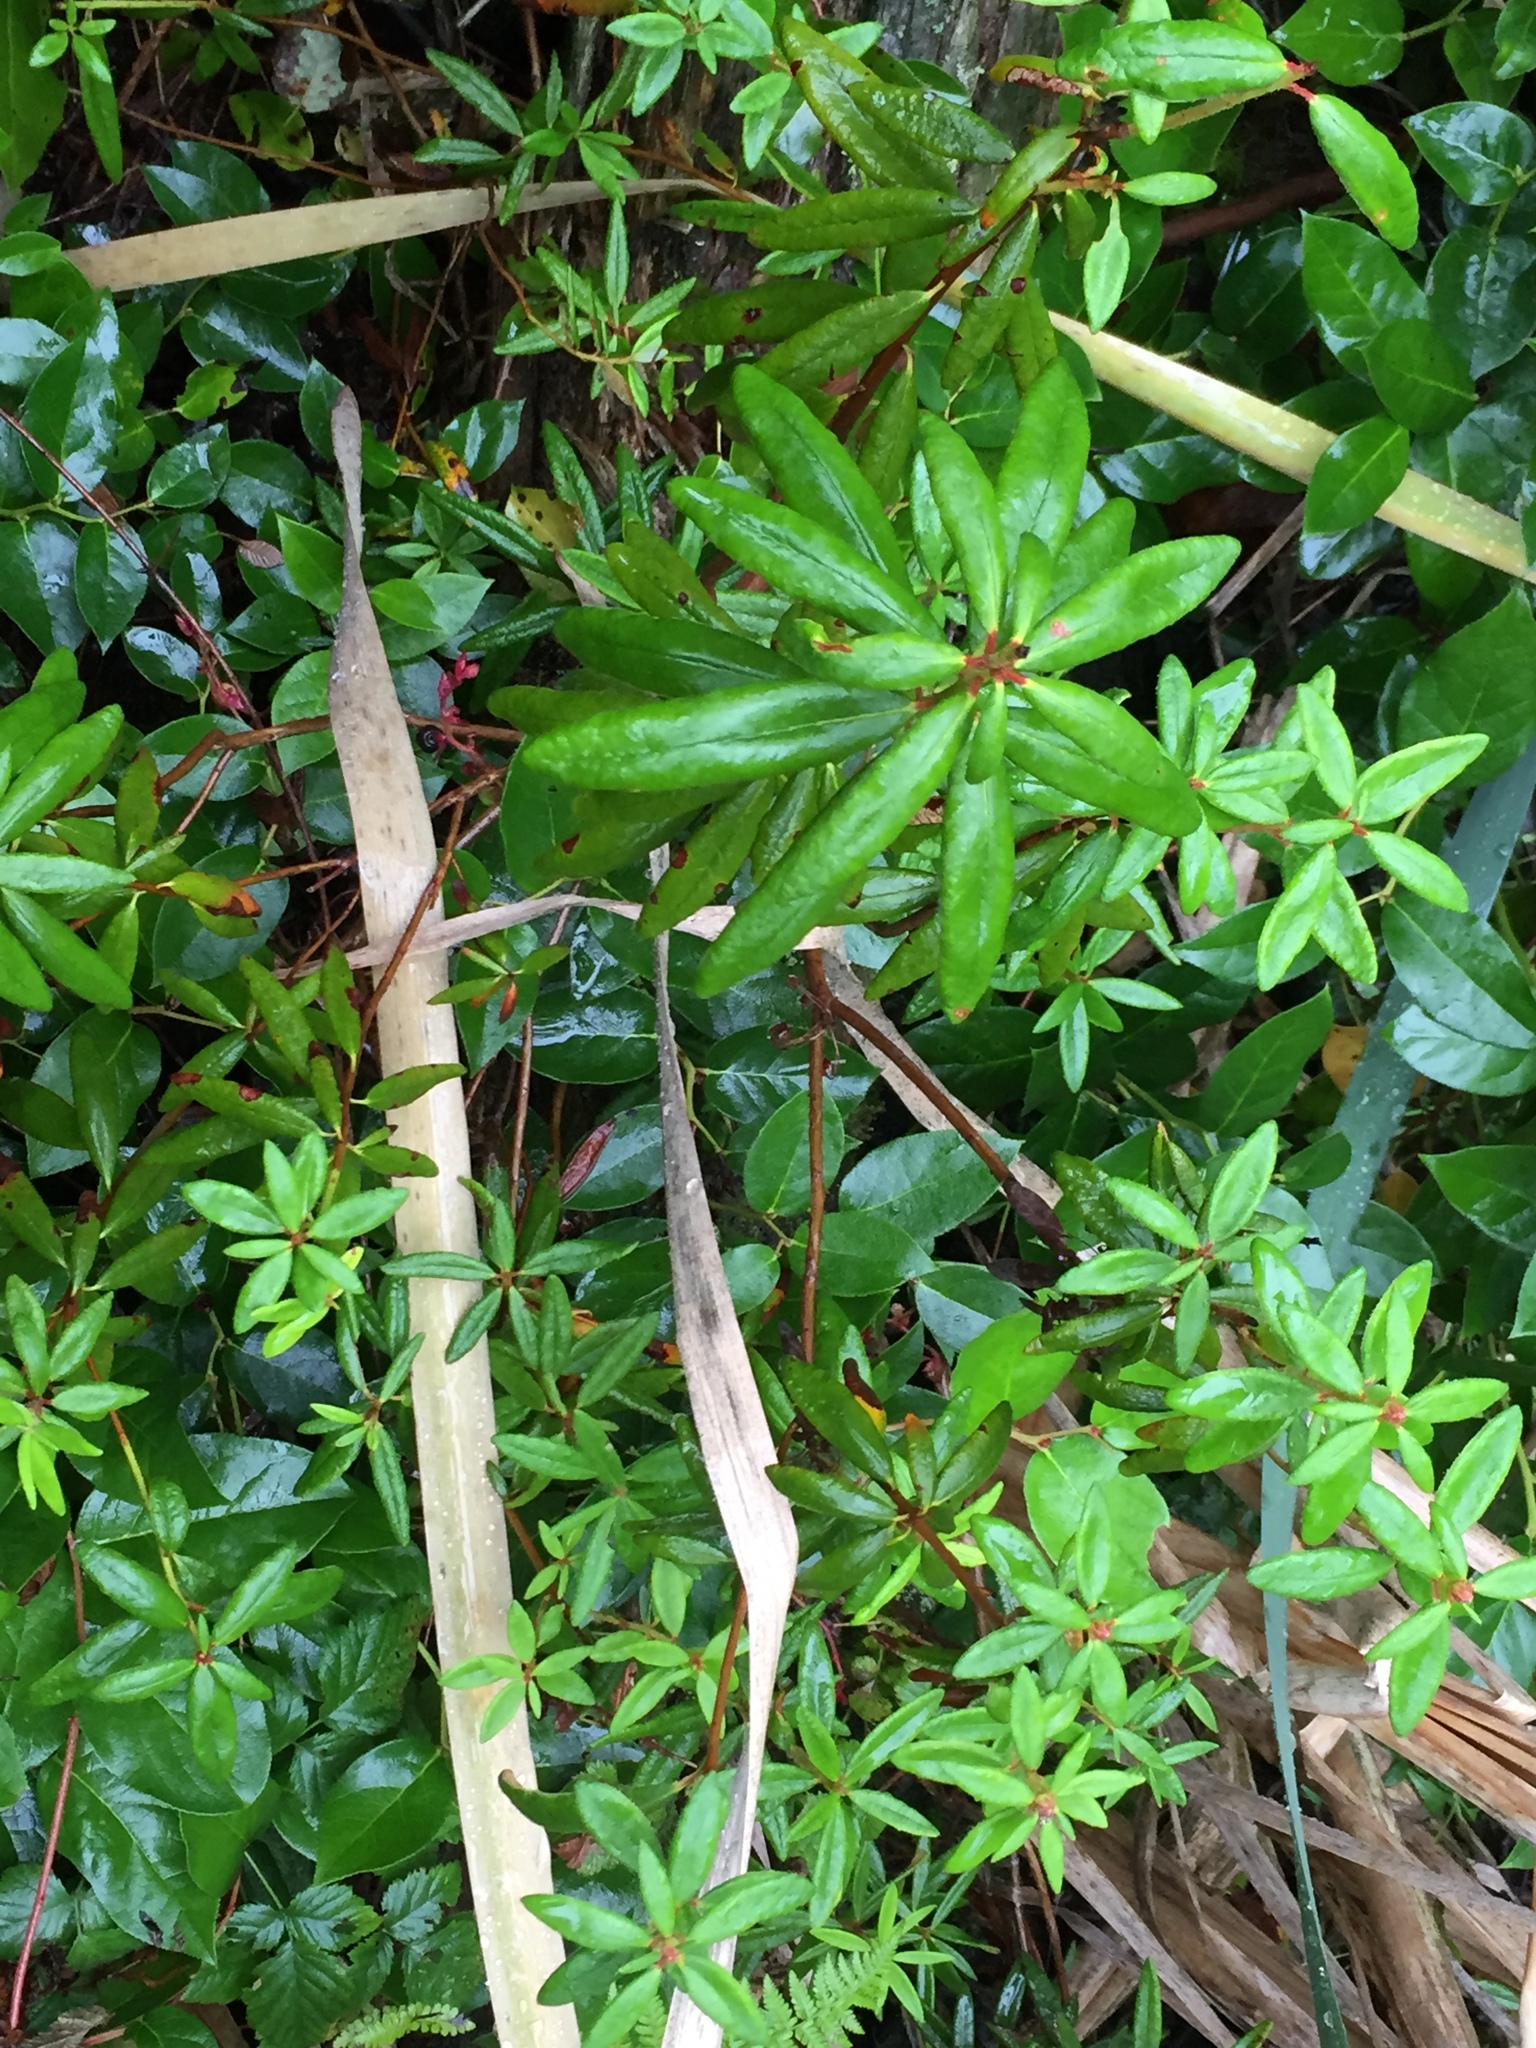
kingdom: Plantae
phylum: Tracheophyta
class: Magnoliopsida
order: Ericales
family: Ericaceae
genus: Rhododendron
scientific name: Rhododendron groenlandicum
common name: Bog labrador tea
